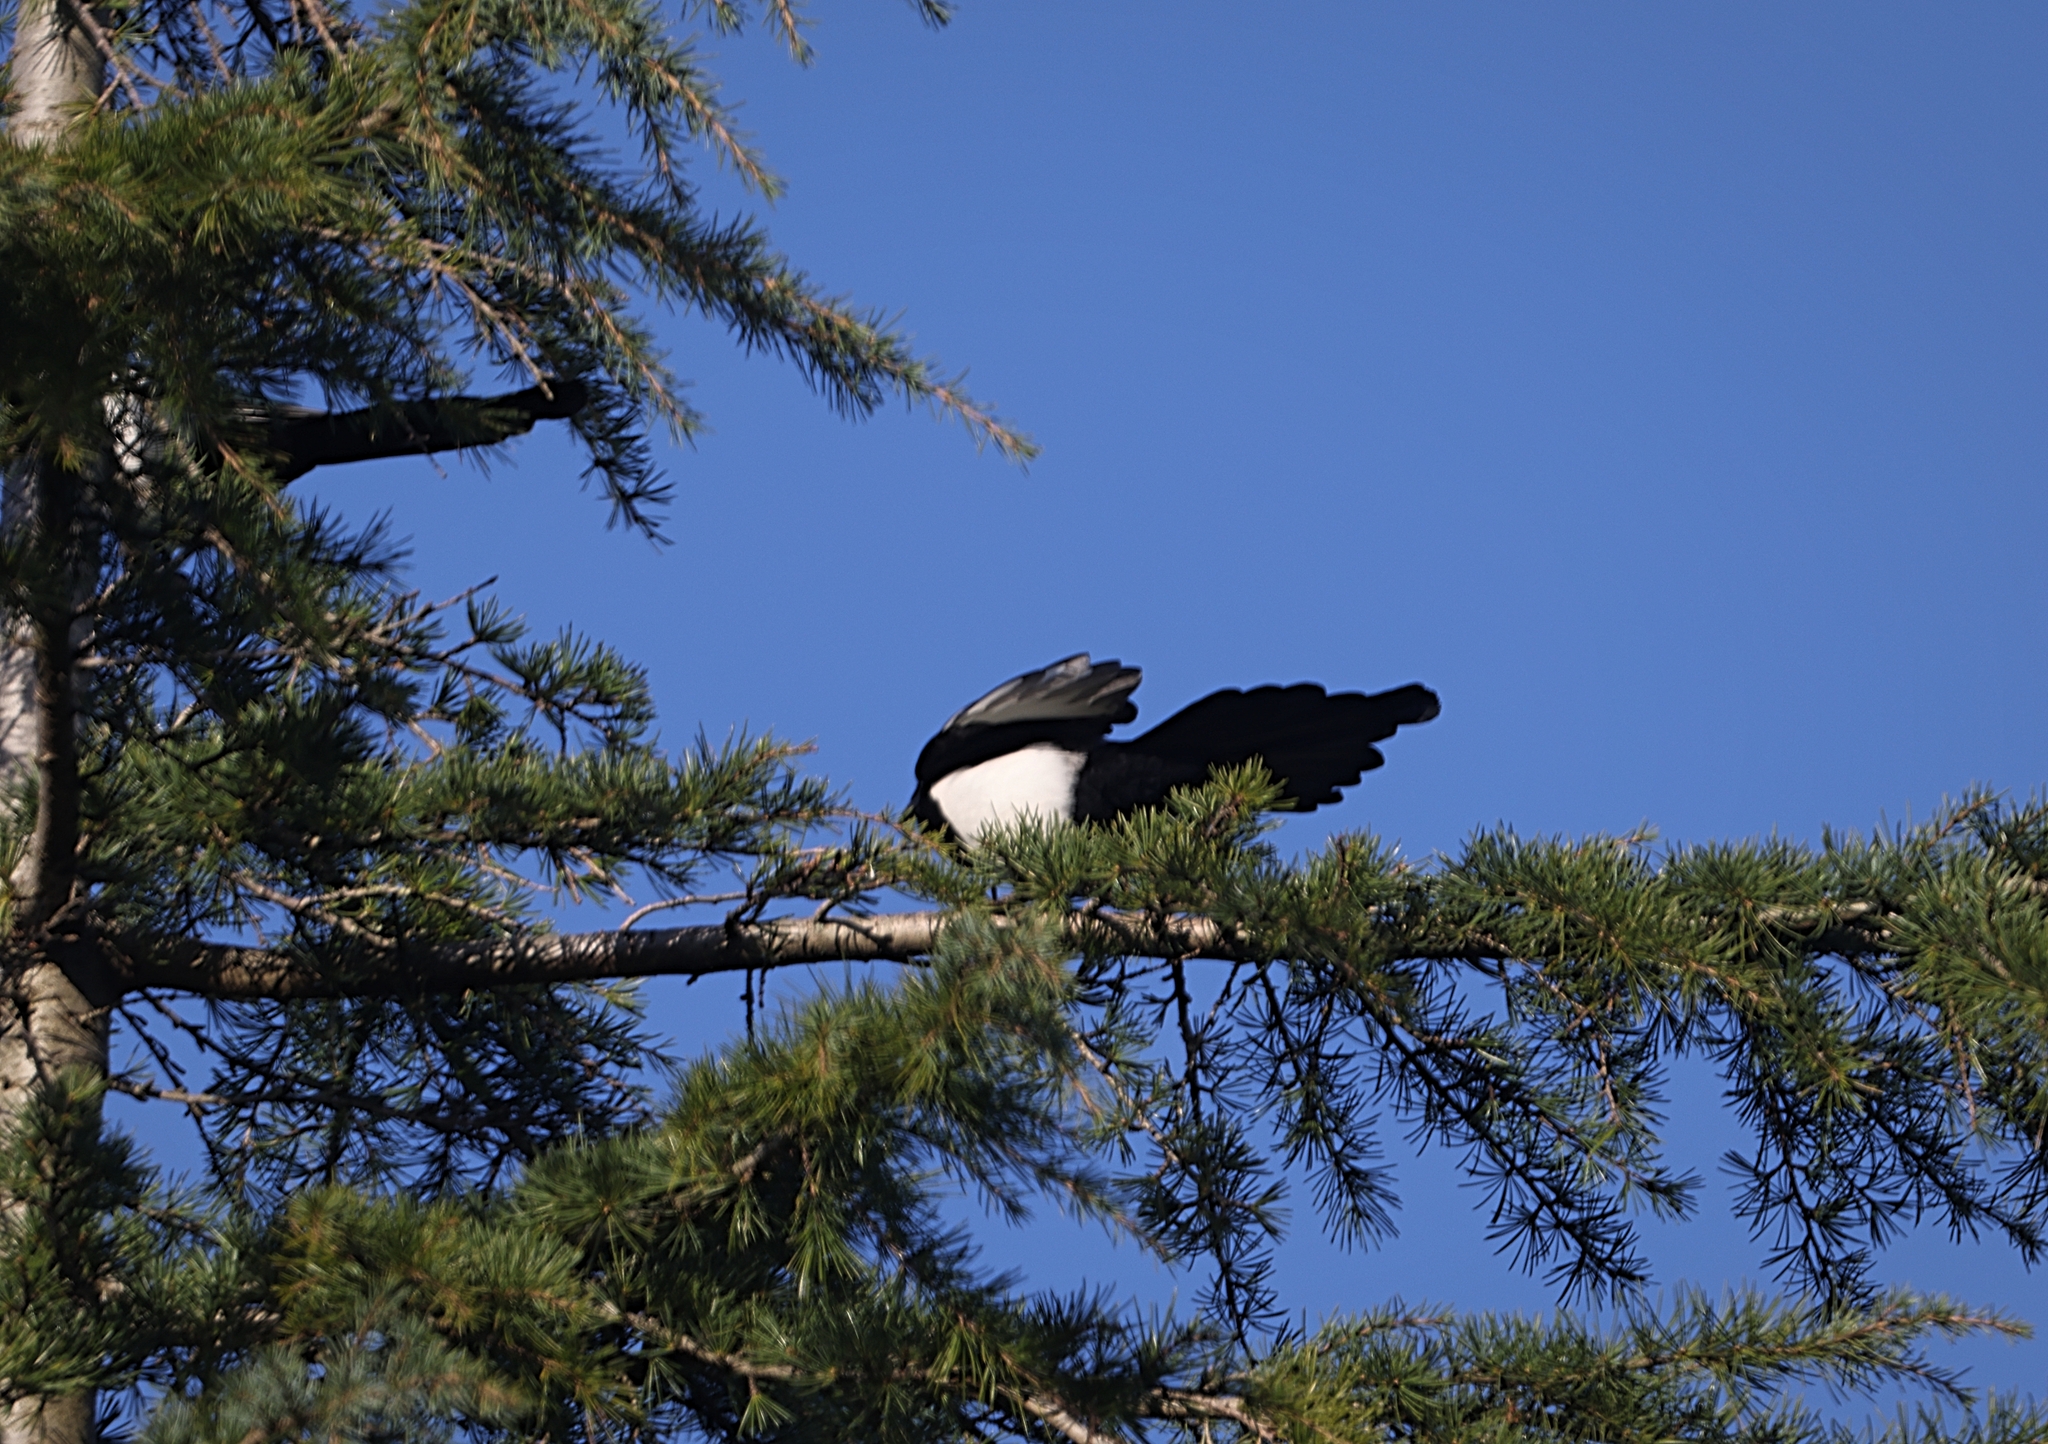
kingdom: Animalia
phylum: Chordata
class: Aves
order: Passeriformes
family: Corvidae
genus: Pica
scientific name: Pica pica
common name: Eurasian magpie
